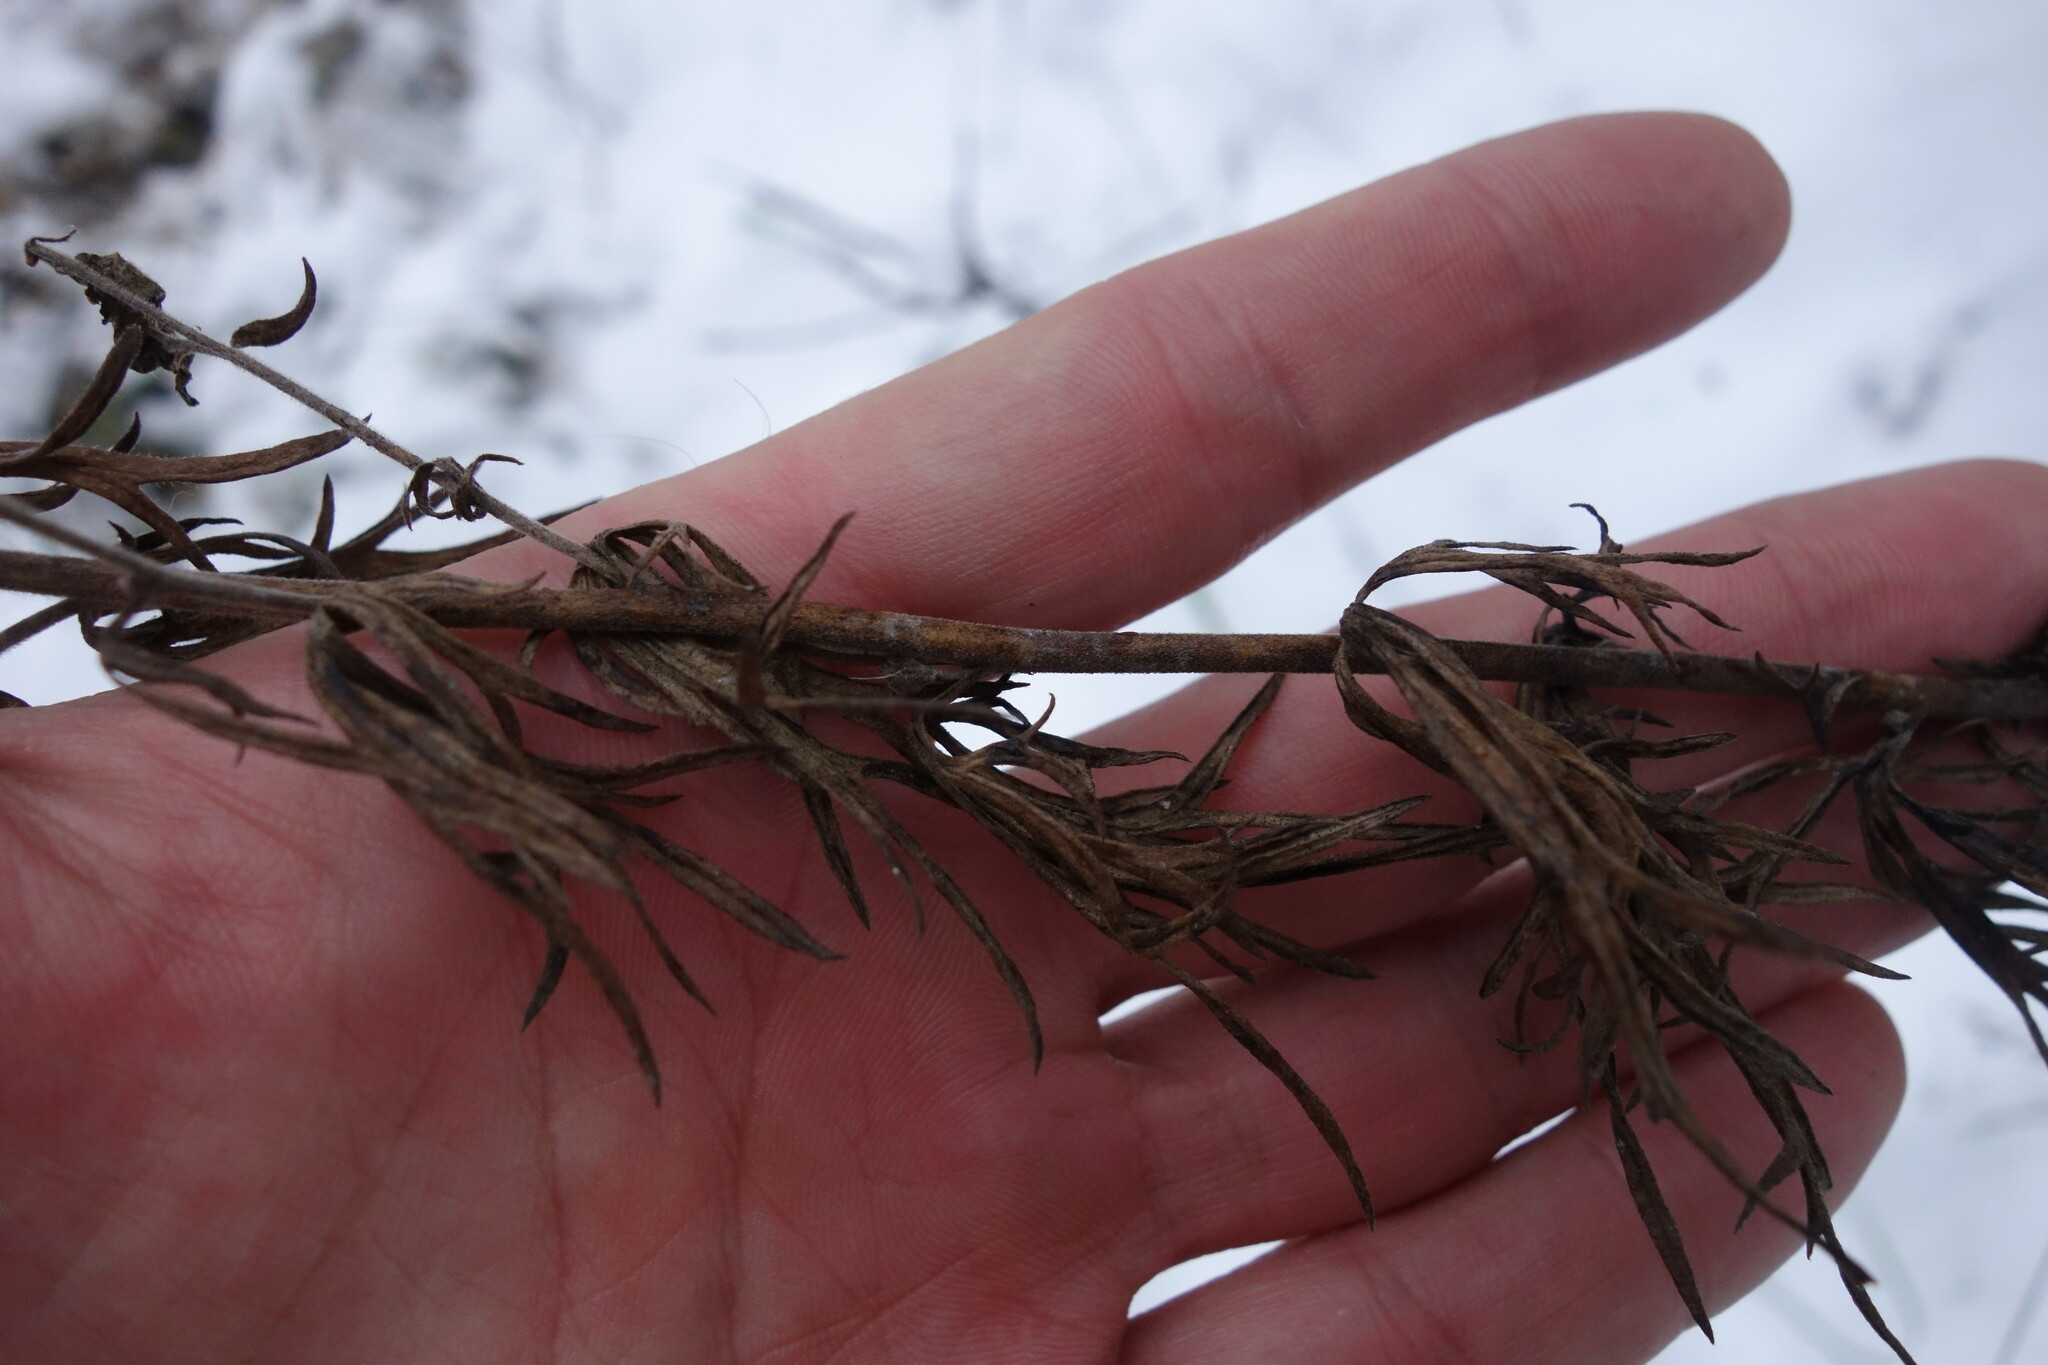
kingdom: Plantae
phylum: Tracheophyta
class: Magnoliopsida
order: Ranunculales
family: Ranunculaceae
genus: Aconitum
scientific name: Aconitum anthora
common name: Yellow monkshood
